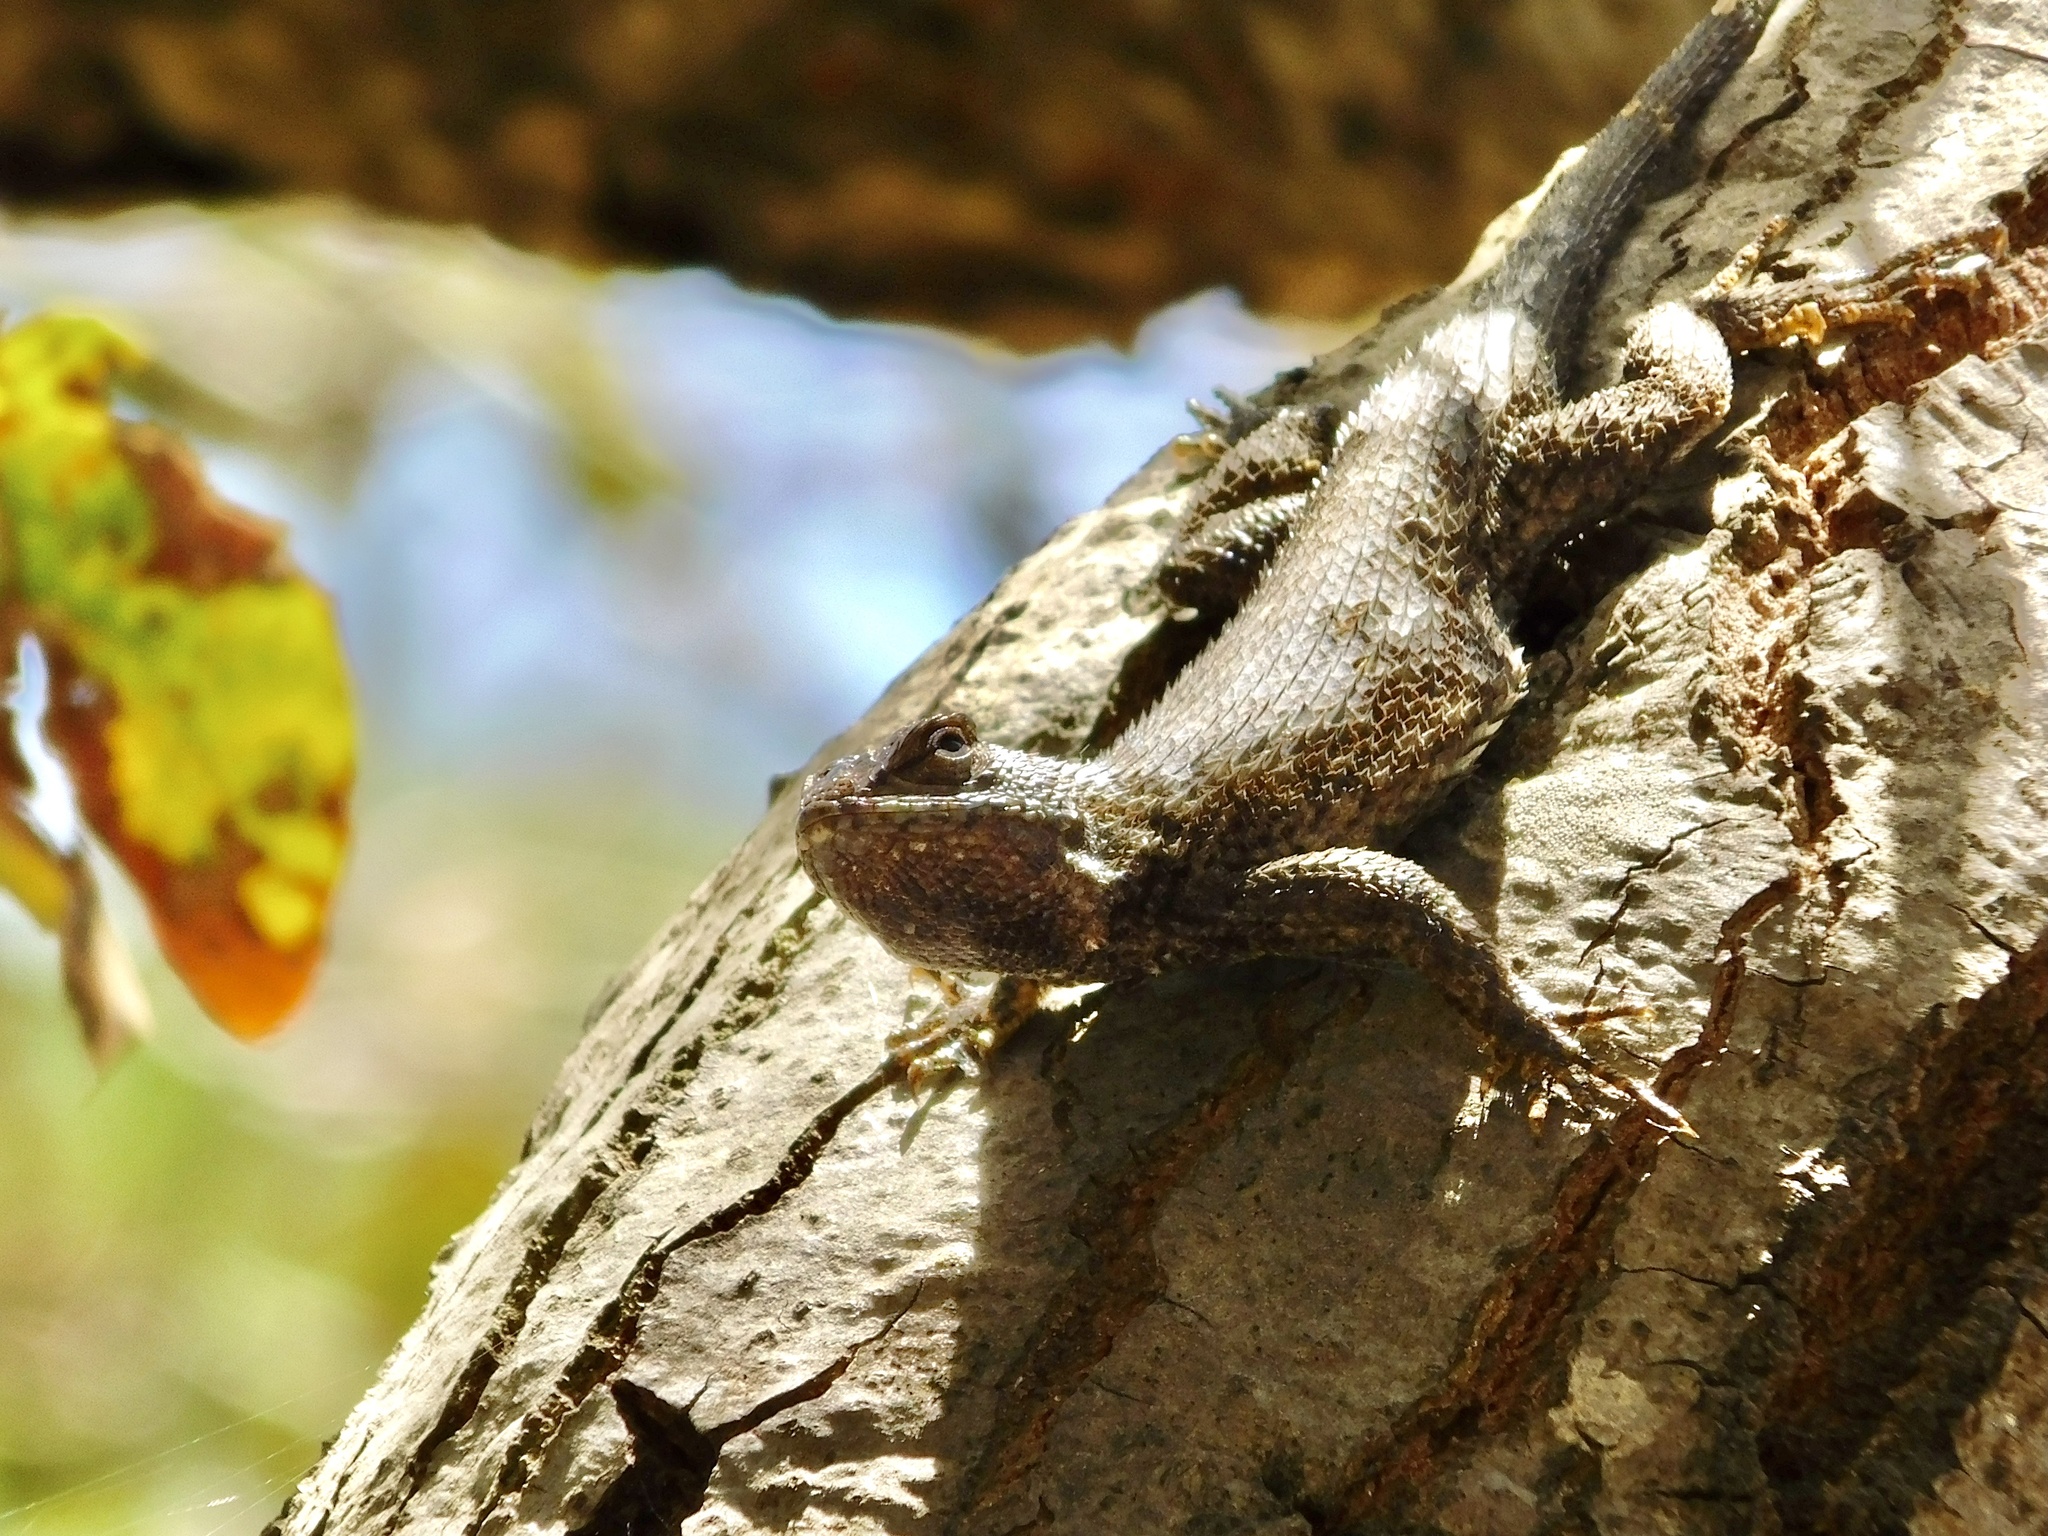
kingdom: Animalia
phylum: Chordata
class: Squamata
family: Phrynosomatidae
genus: Sceloporus
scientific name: Sceloporus occidentalis
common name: Western fence lizard
